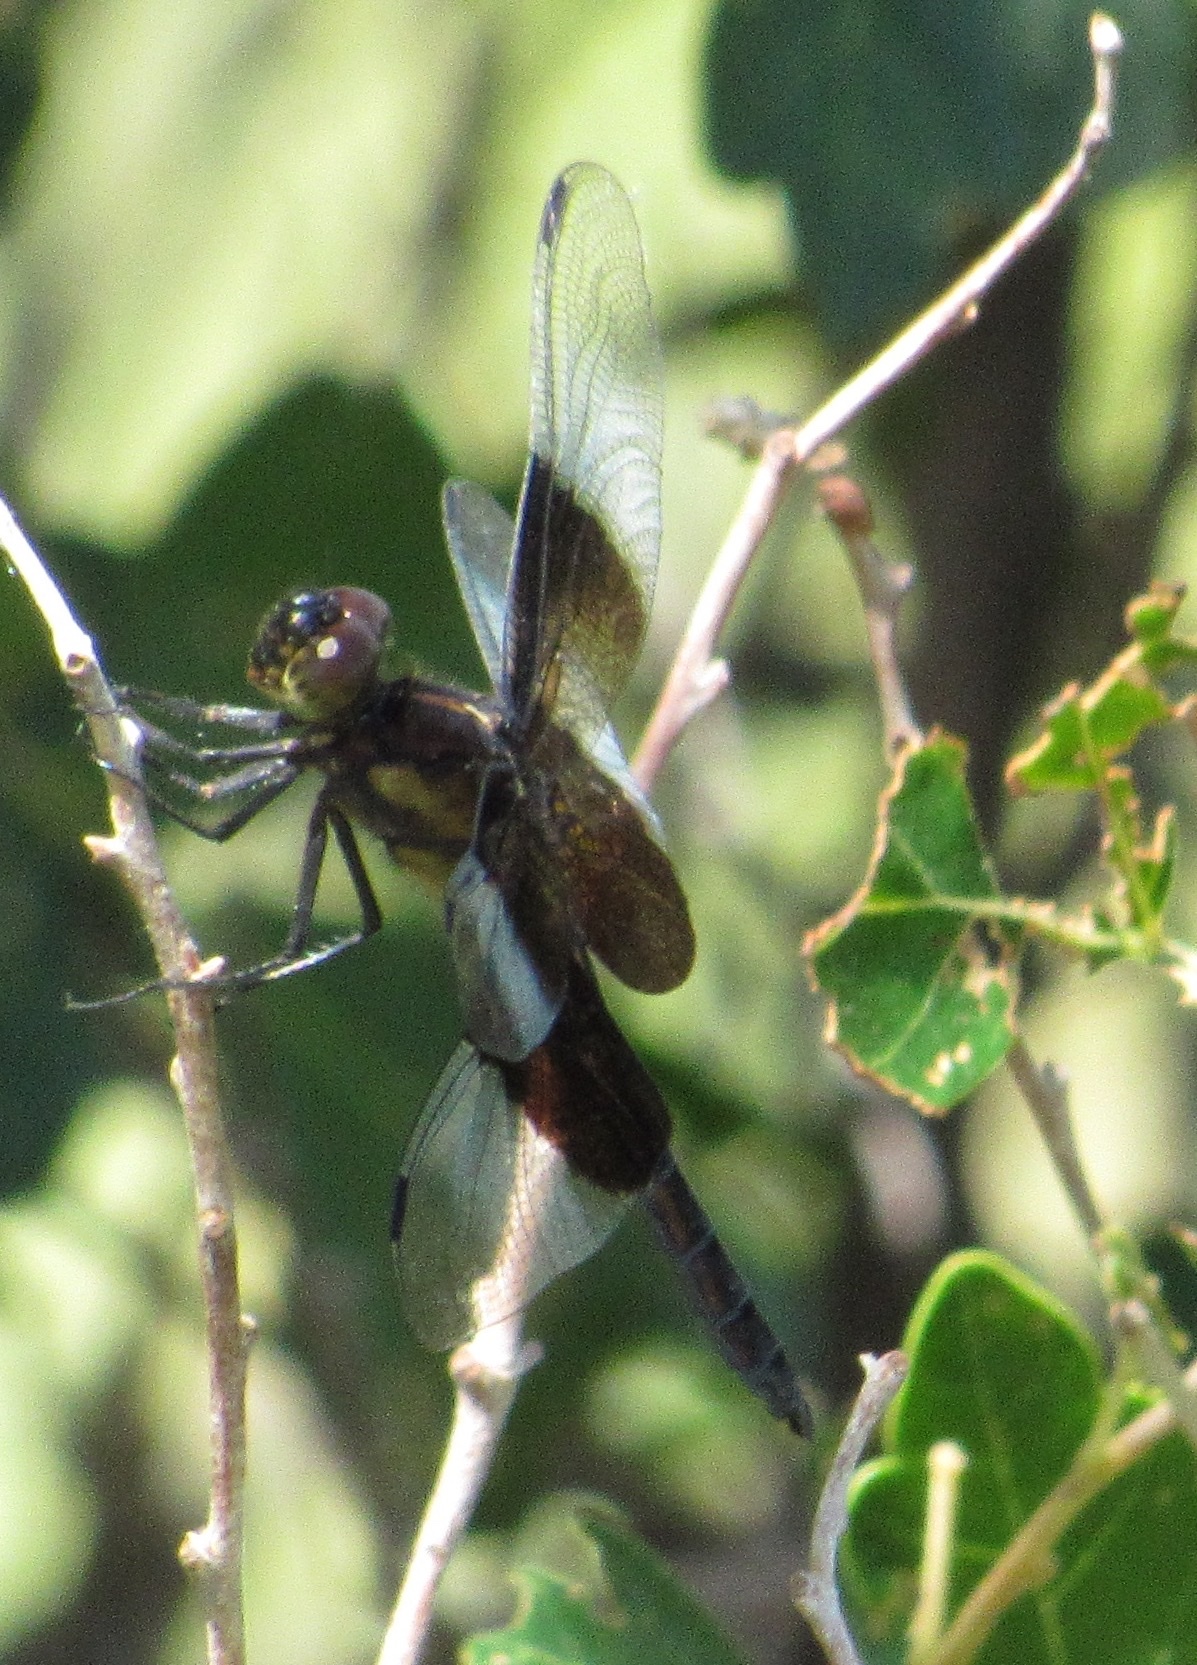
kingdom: Animalia
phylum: Arthropoda
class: Insecta
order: Odonata
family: Libellulidae
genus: Libellula
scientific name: Libellula luctuosa
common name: Widow skimmer
